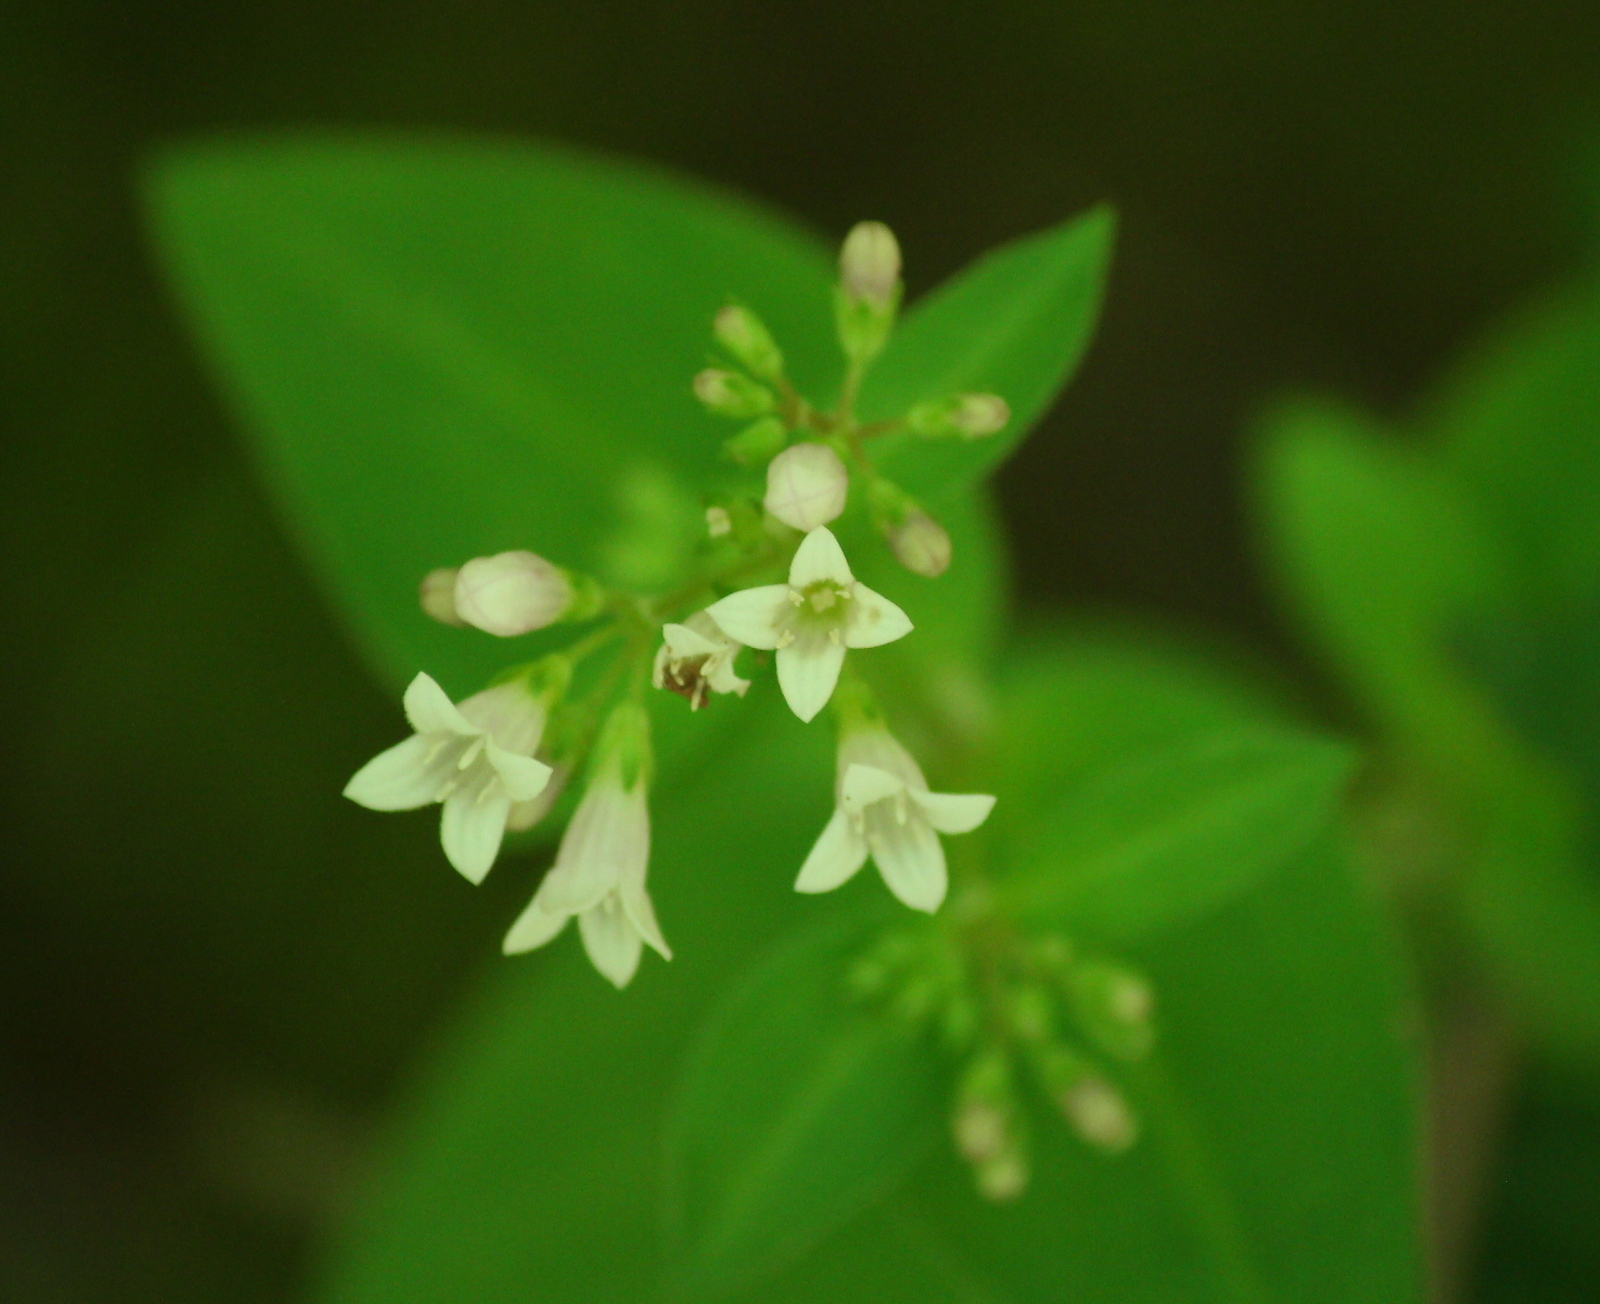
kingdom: Plantae
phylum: Tracheophyta
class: Magnoliopsida
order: Gentianales
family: Rubiaceae
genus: Houstonia
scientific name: Houstonia purpurea
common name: Summer bluet
